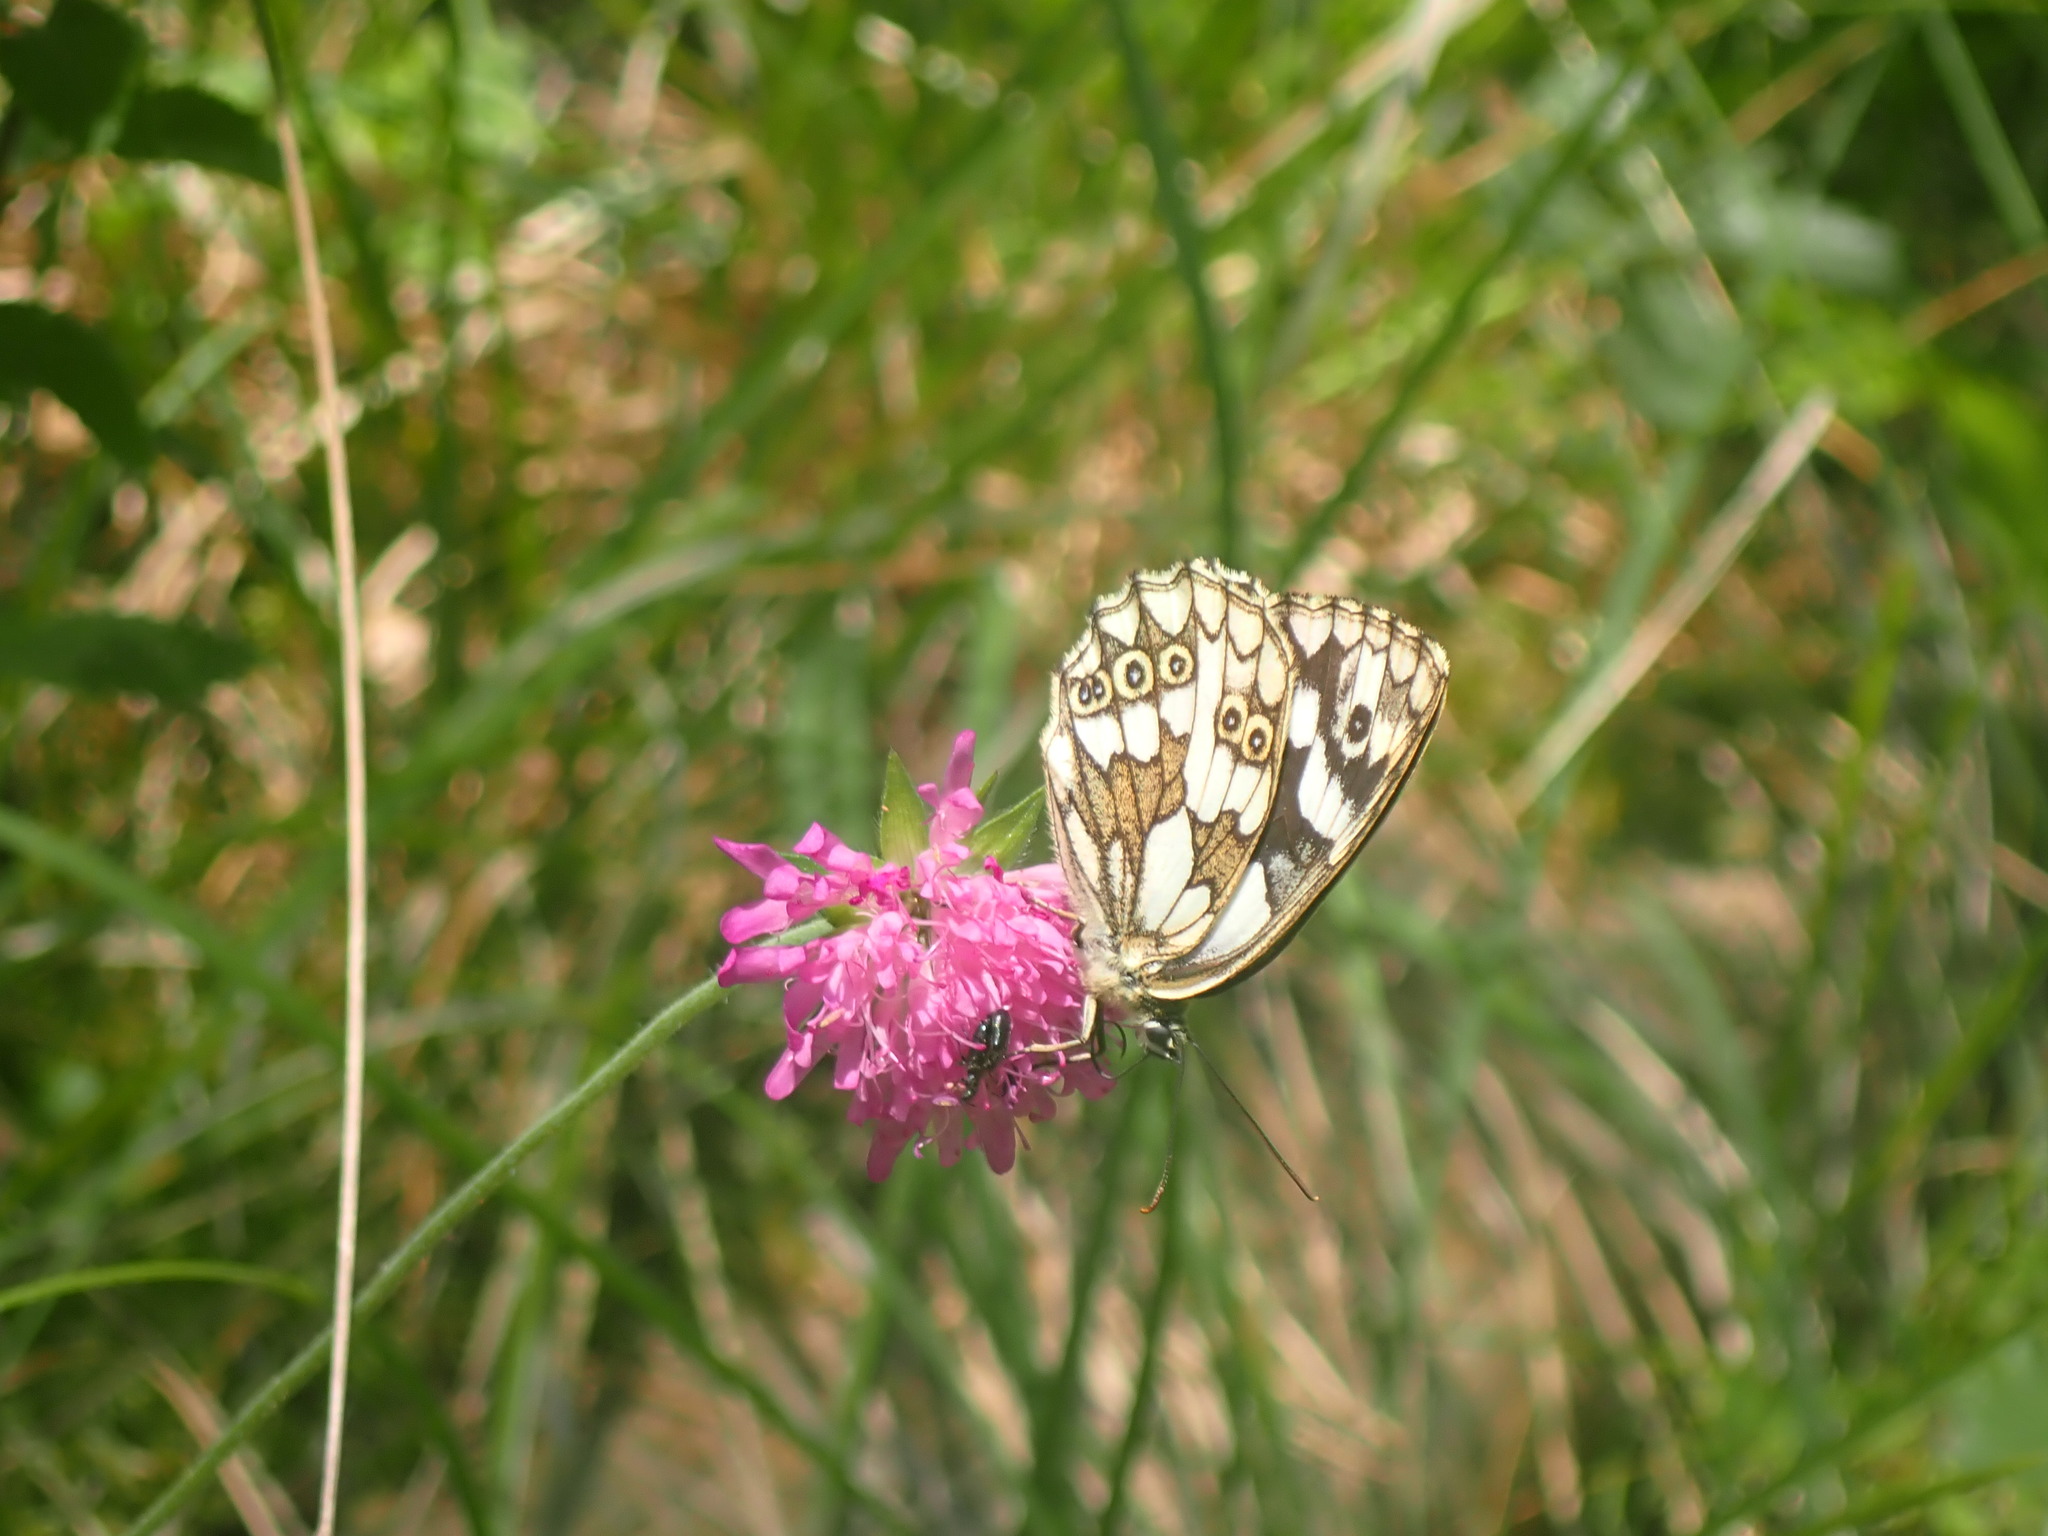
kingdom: Animalia
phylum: Arthropoda
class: Insecta
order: Lepidoptera
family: Nymphalidae
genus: Melanargia
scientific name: Melanargia galathea
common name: Marbled white
